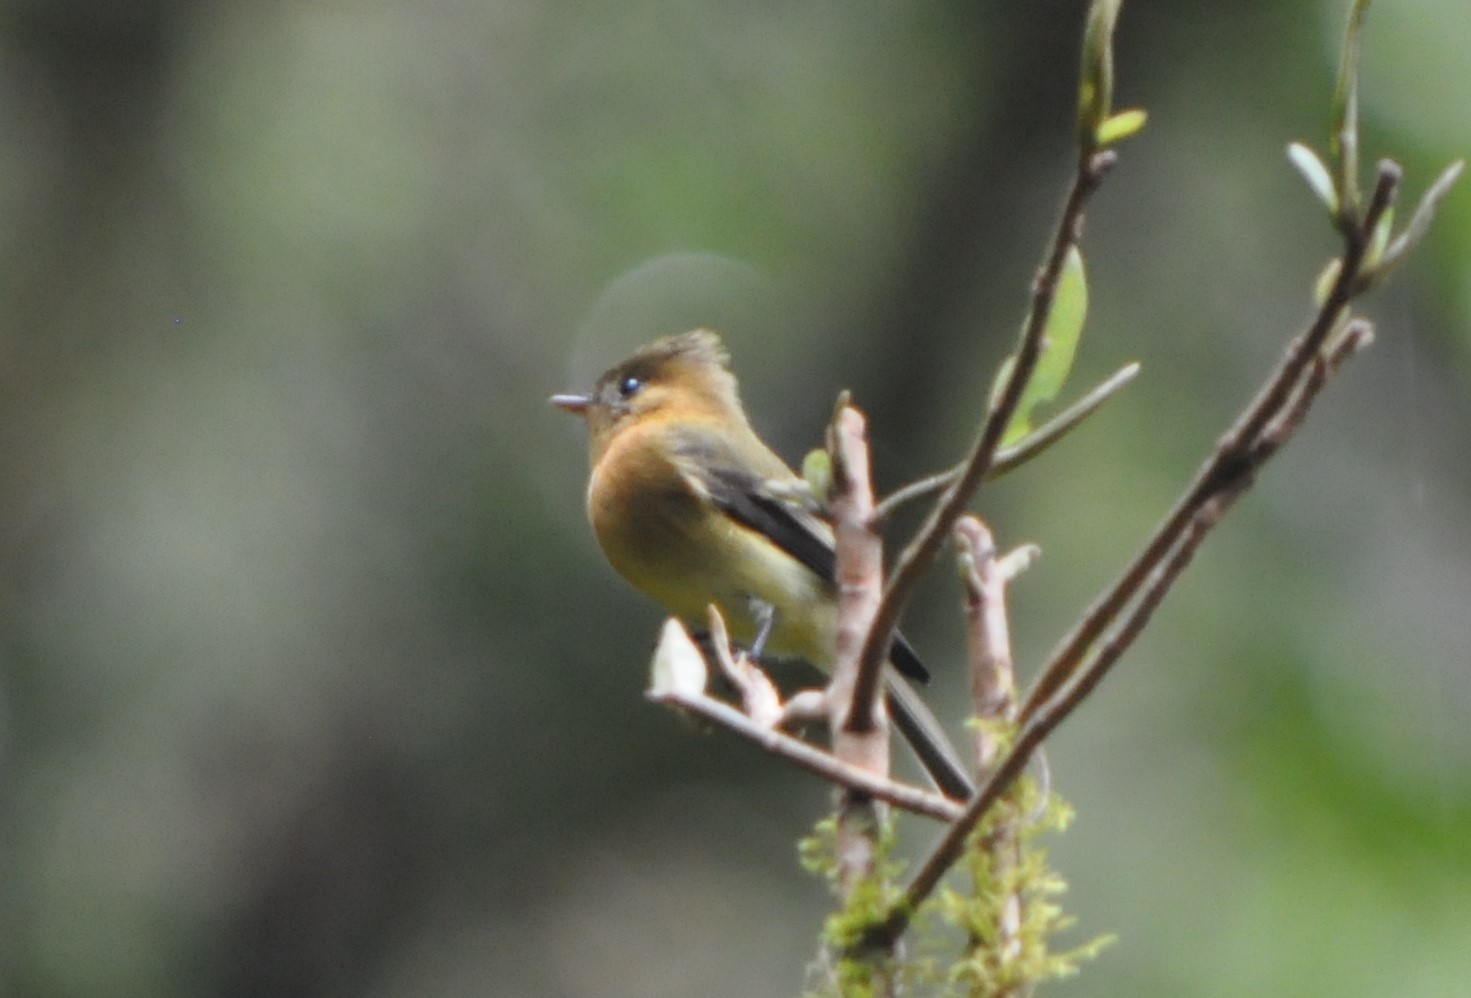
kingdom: Animalia
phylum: Chordata
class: Aves
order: Passeriformes
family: Tyrannidae
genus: Mitrephanes
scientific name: Mitrephanes phaeocercus
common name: Northern tufted flycatcher
